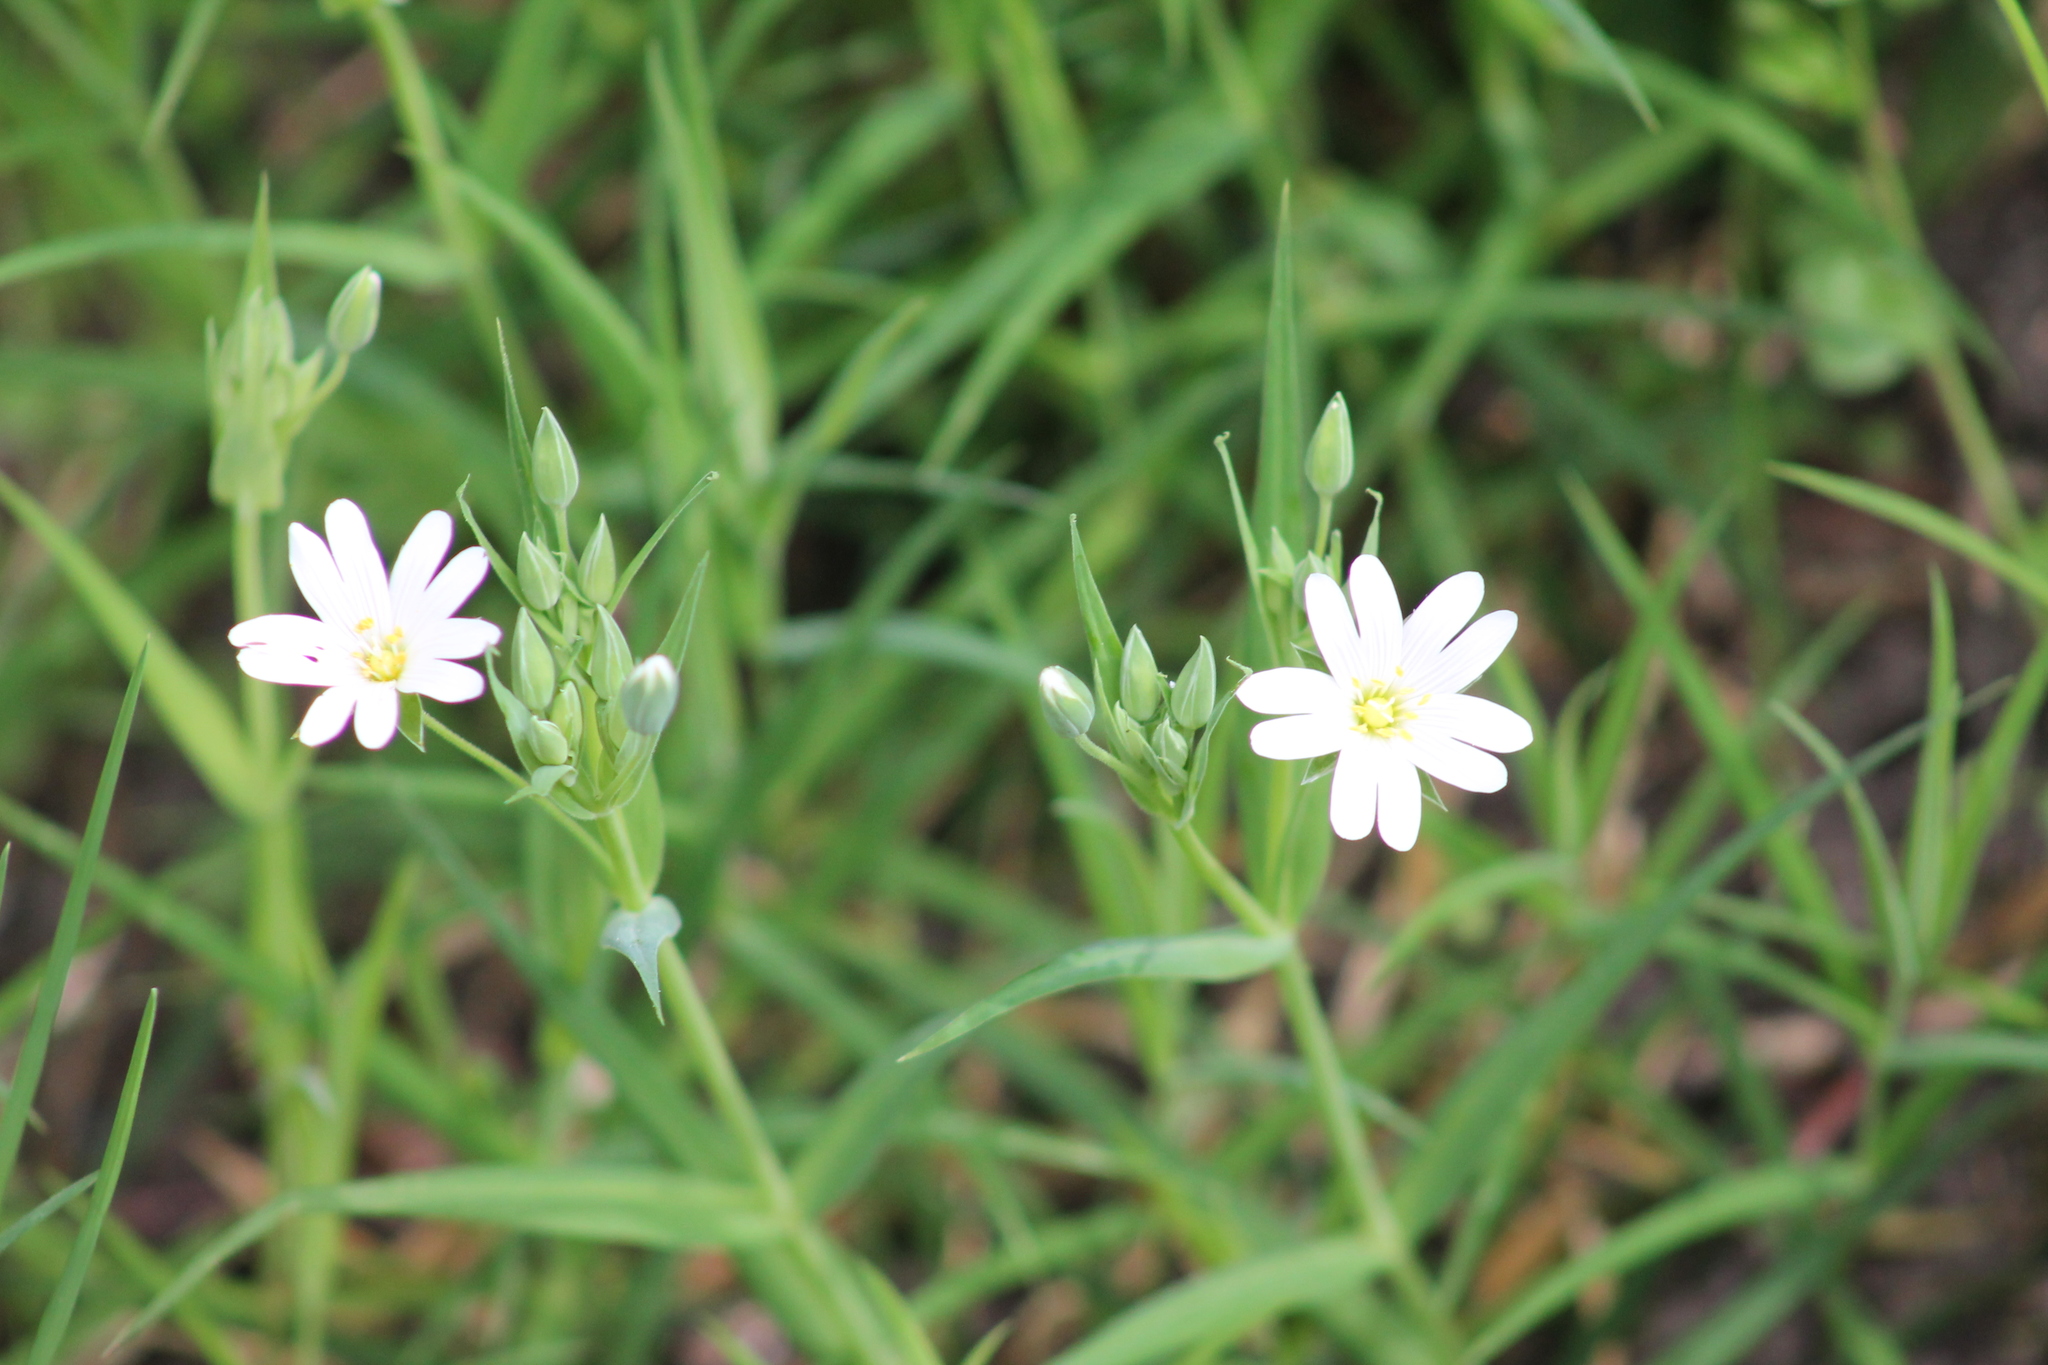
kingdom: Plantae
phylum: Tracheophyta
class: Magnoliopsida
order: Caryophyllales
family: Caryophyllaceae
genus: Rabelera
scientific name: Rabelera holostea
